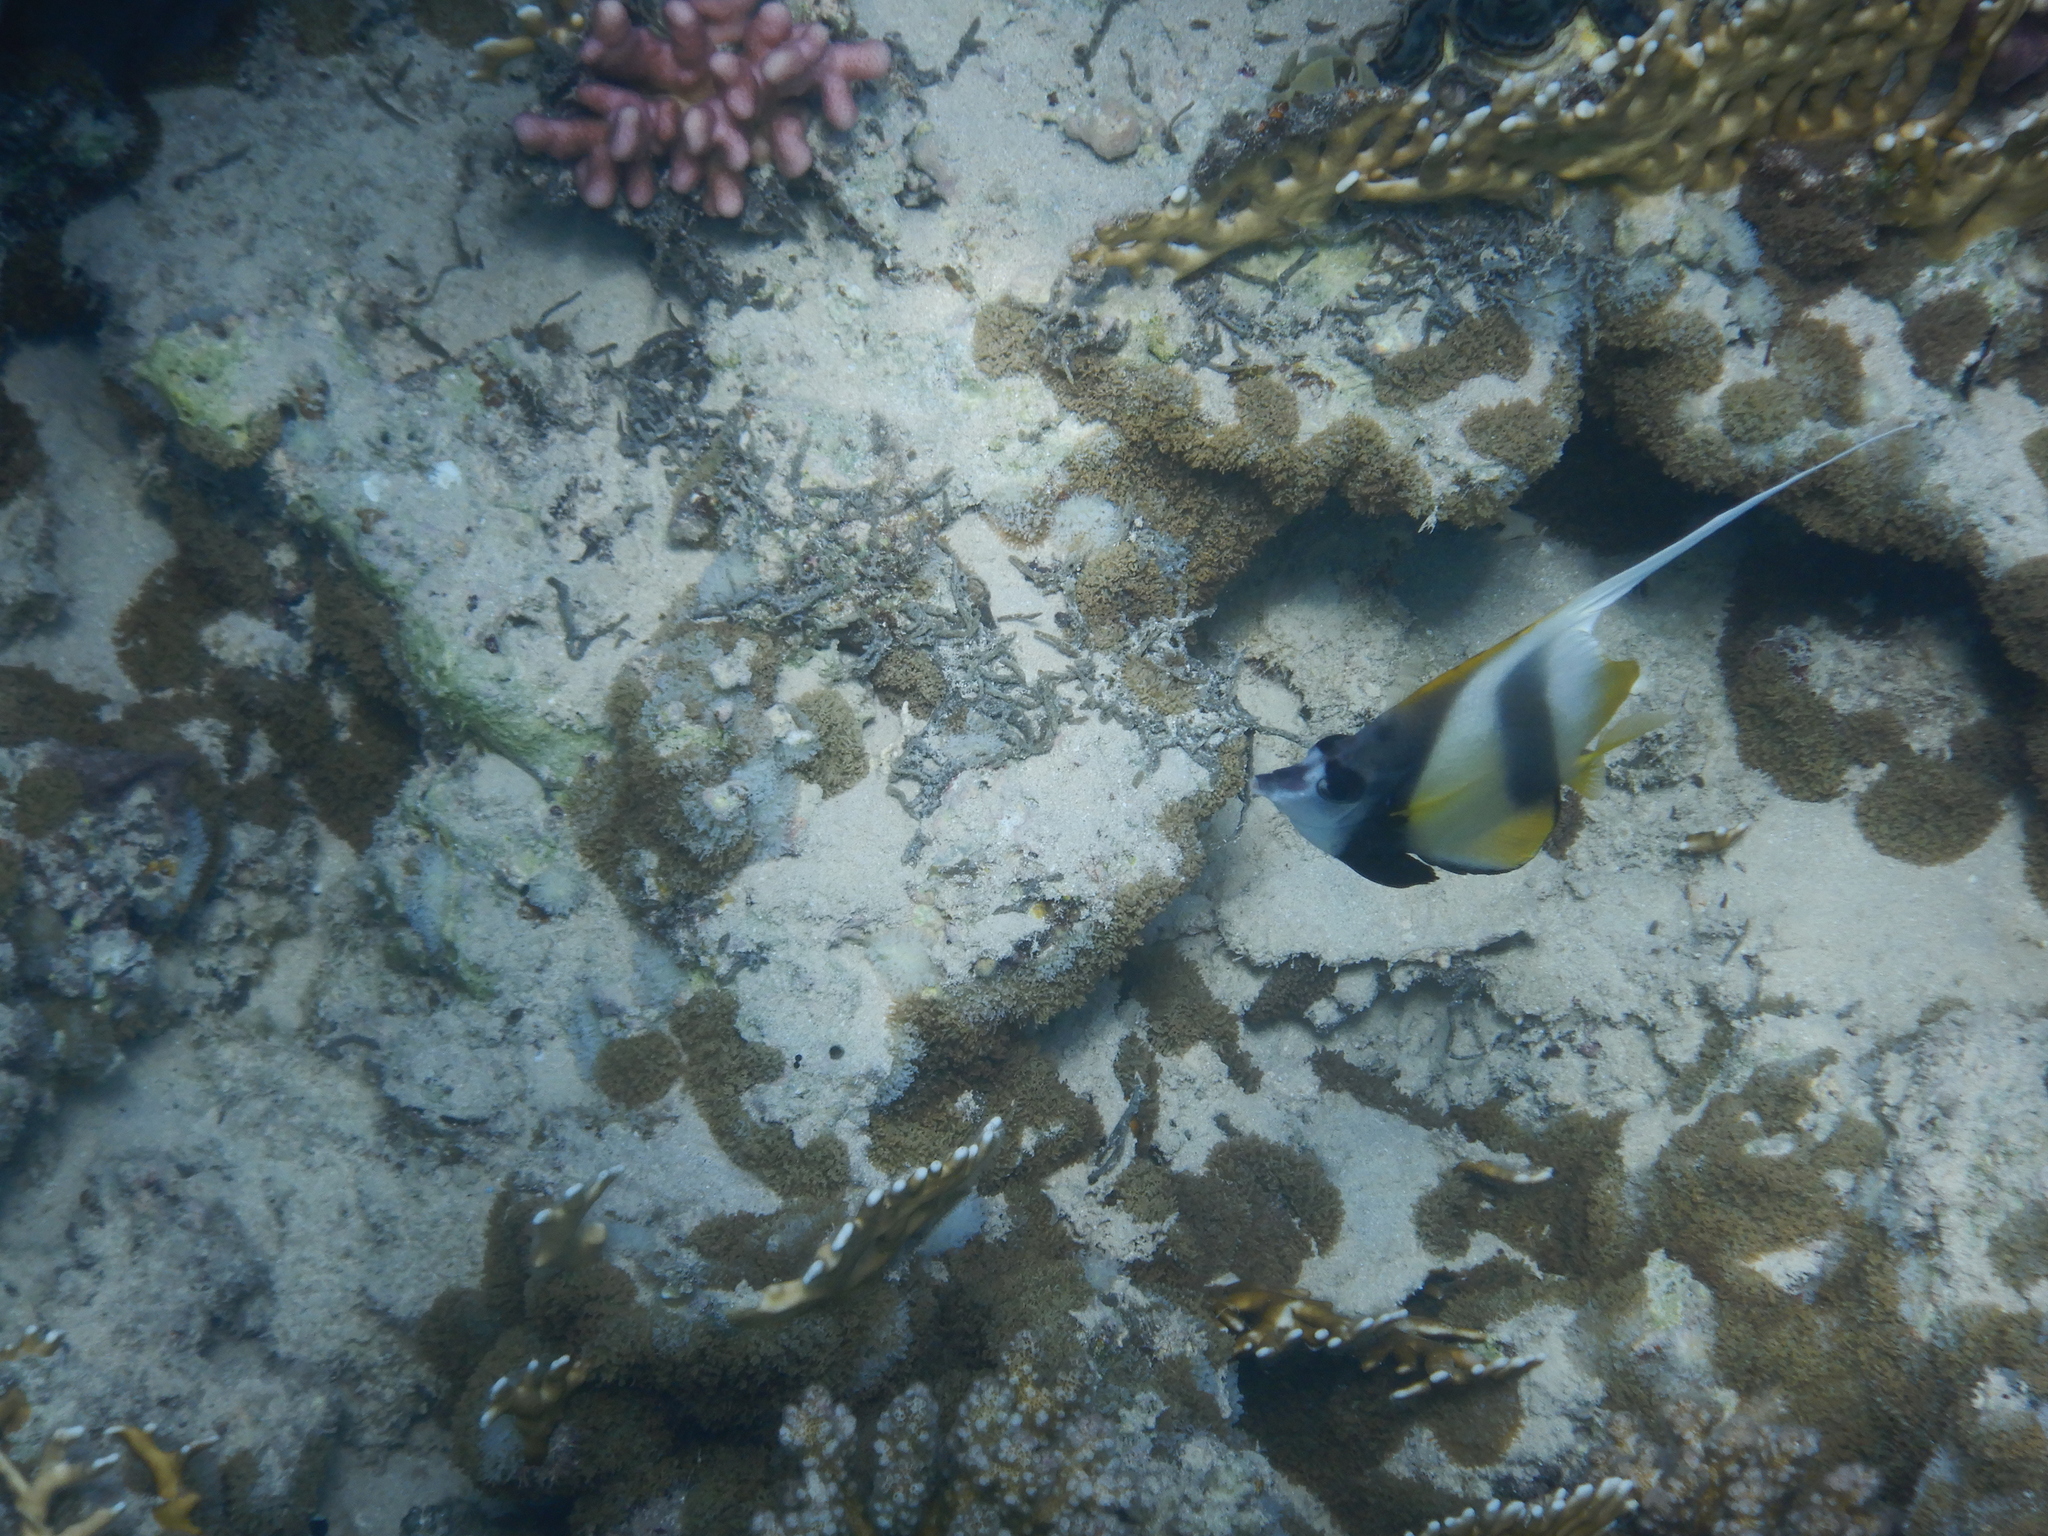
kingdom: Animalia
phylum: Chordata
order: Perciformes
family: Chaetodontidae
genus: Heniochus
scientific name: Heniochus intermedius
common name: Red sea bannerfish
